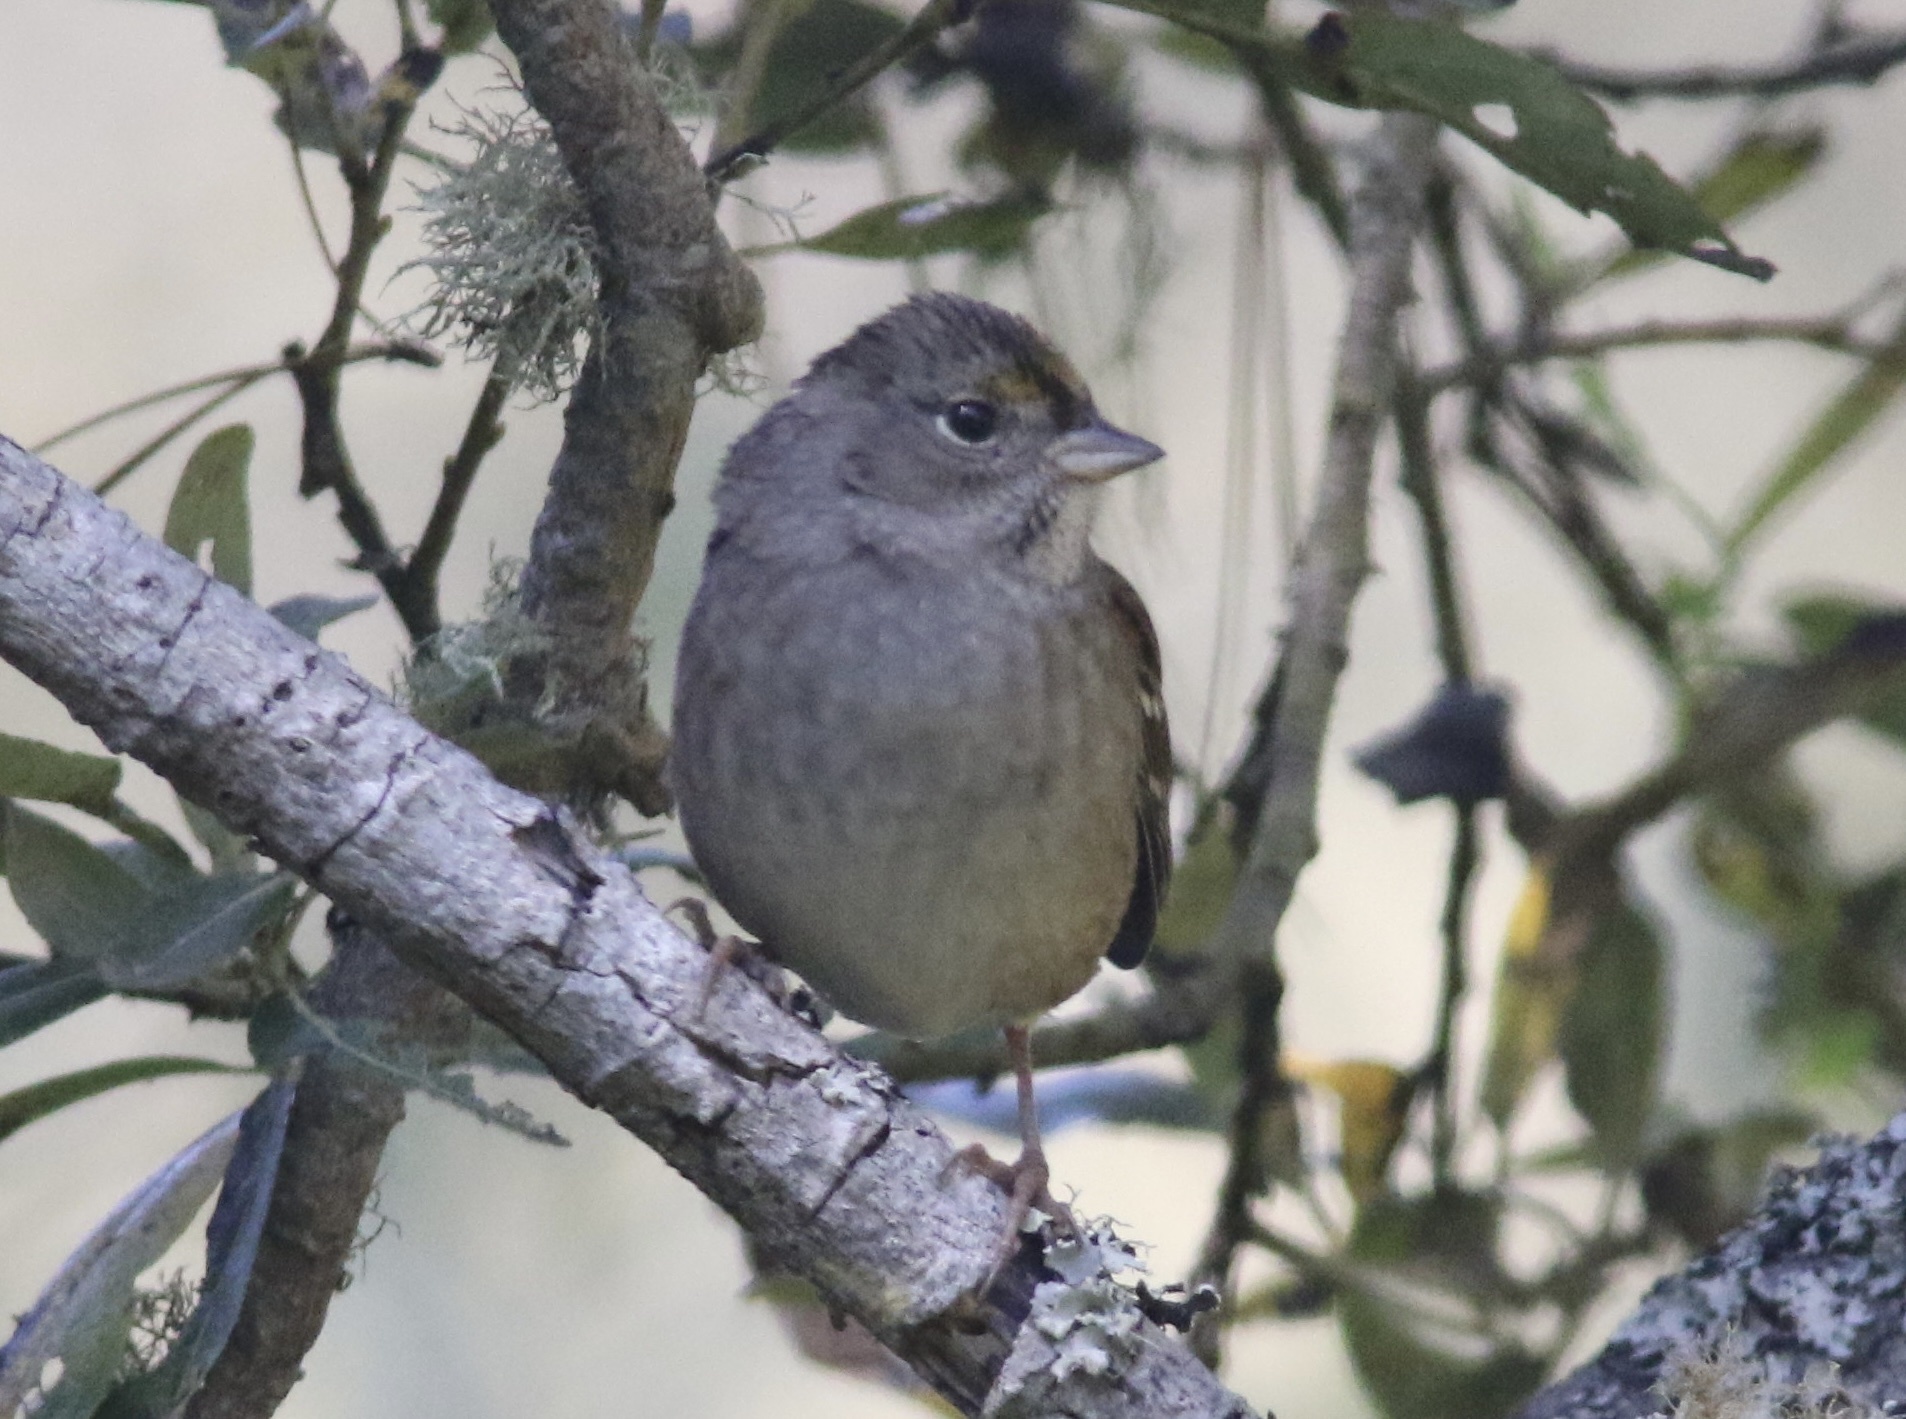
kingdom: Animalia
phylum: Chordata
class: Aves
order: Passeriformes
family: Passerellidae
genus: Zonotrichia
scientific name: Zonotrichia atricapilla
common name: Golden-crowned sparrow
